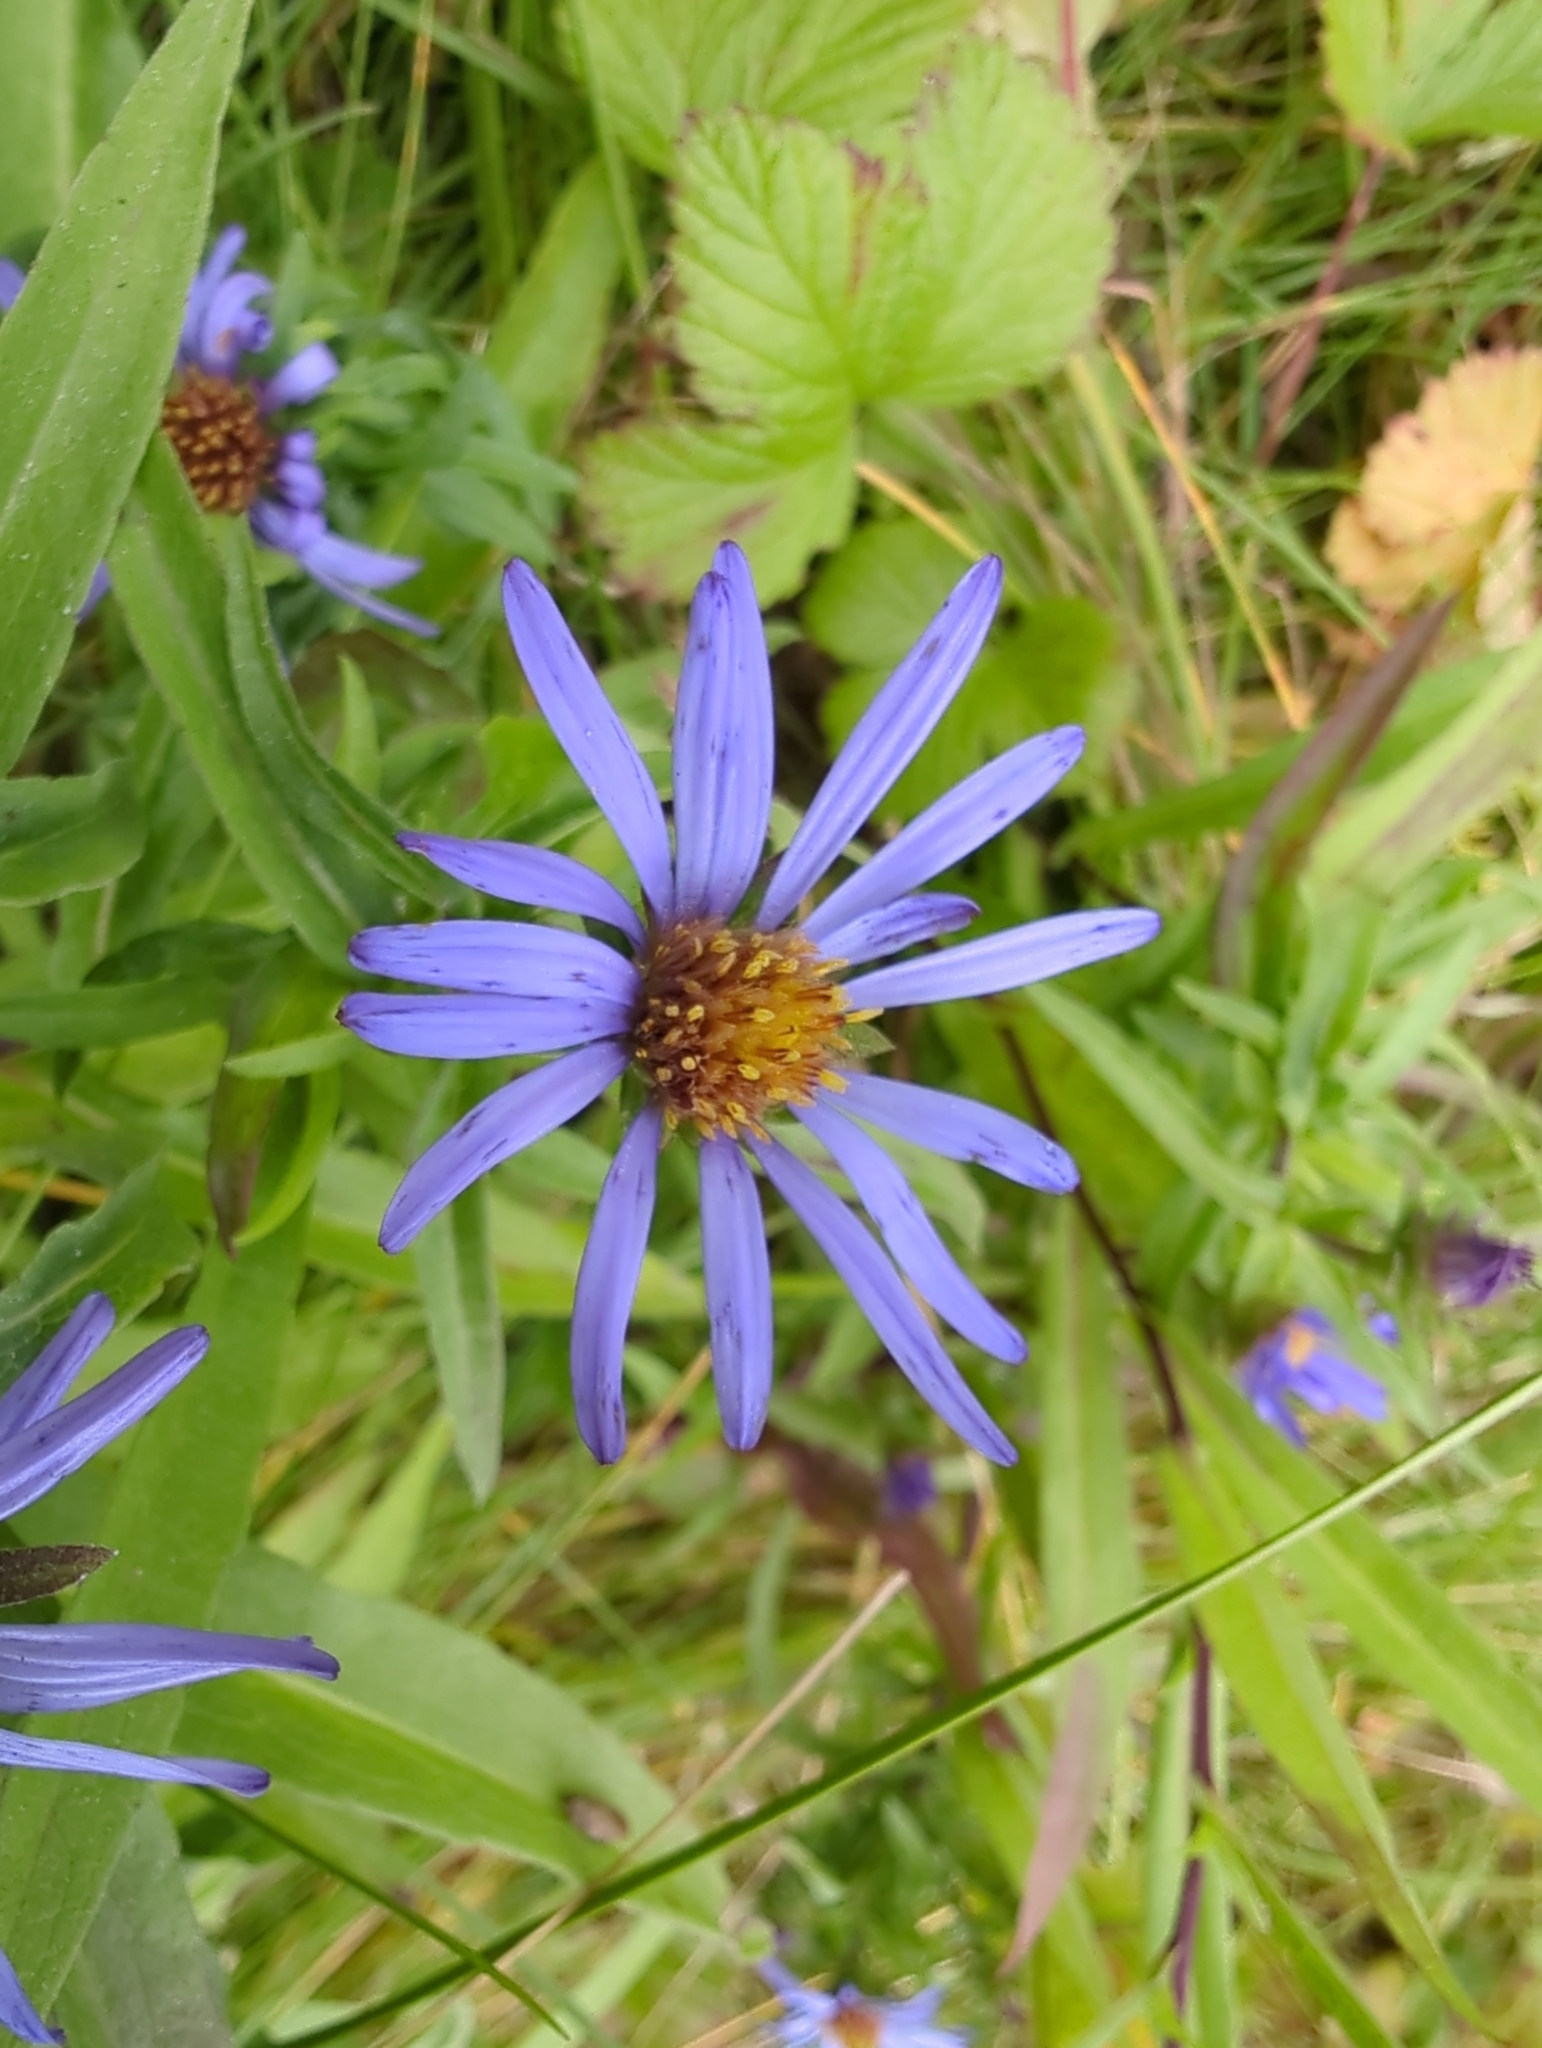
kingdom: Plantae
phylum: Tracheophyta
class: Magnoliopsida
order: Asterales
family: Asteraceae
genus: Symphyotrichum
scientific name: Symphyotrichum subspicatum
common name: Douglas' aster
